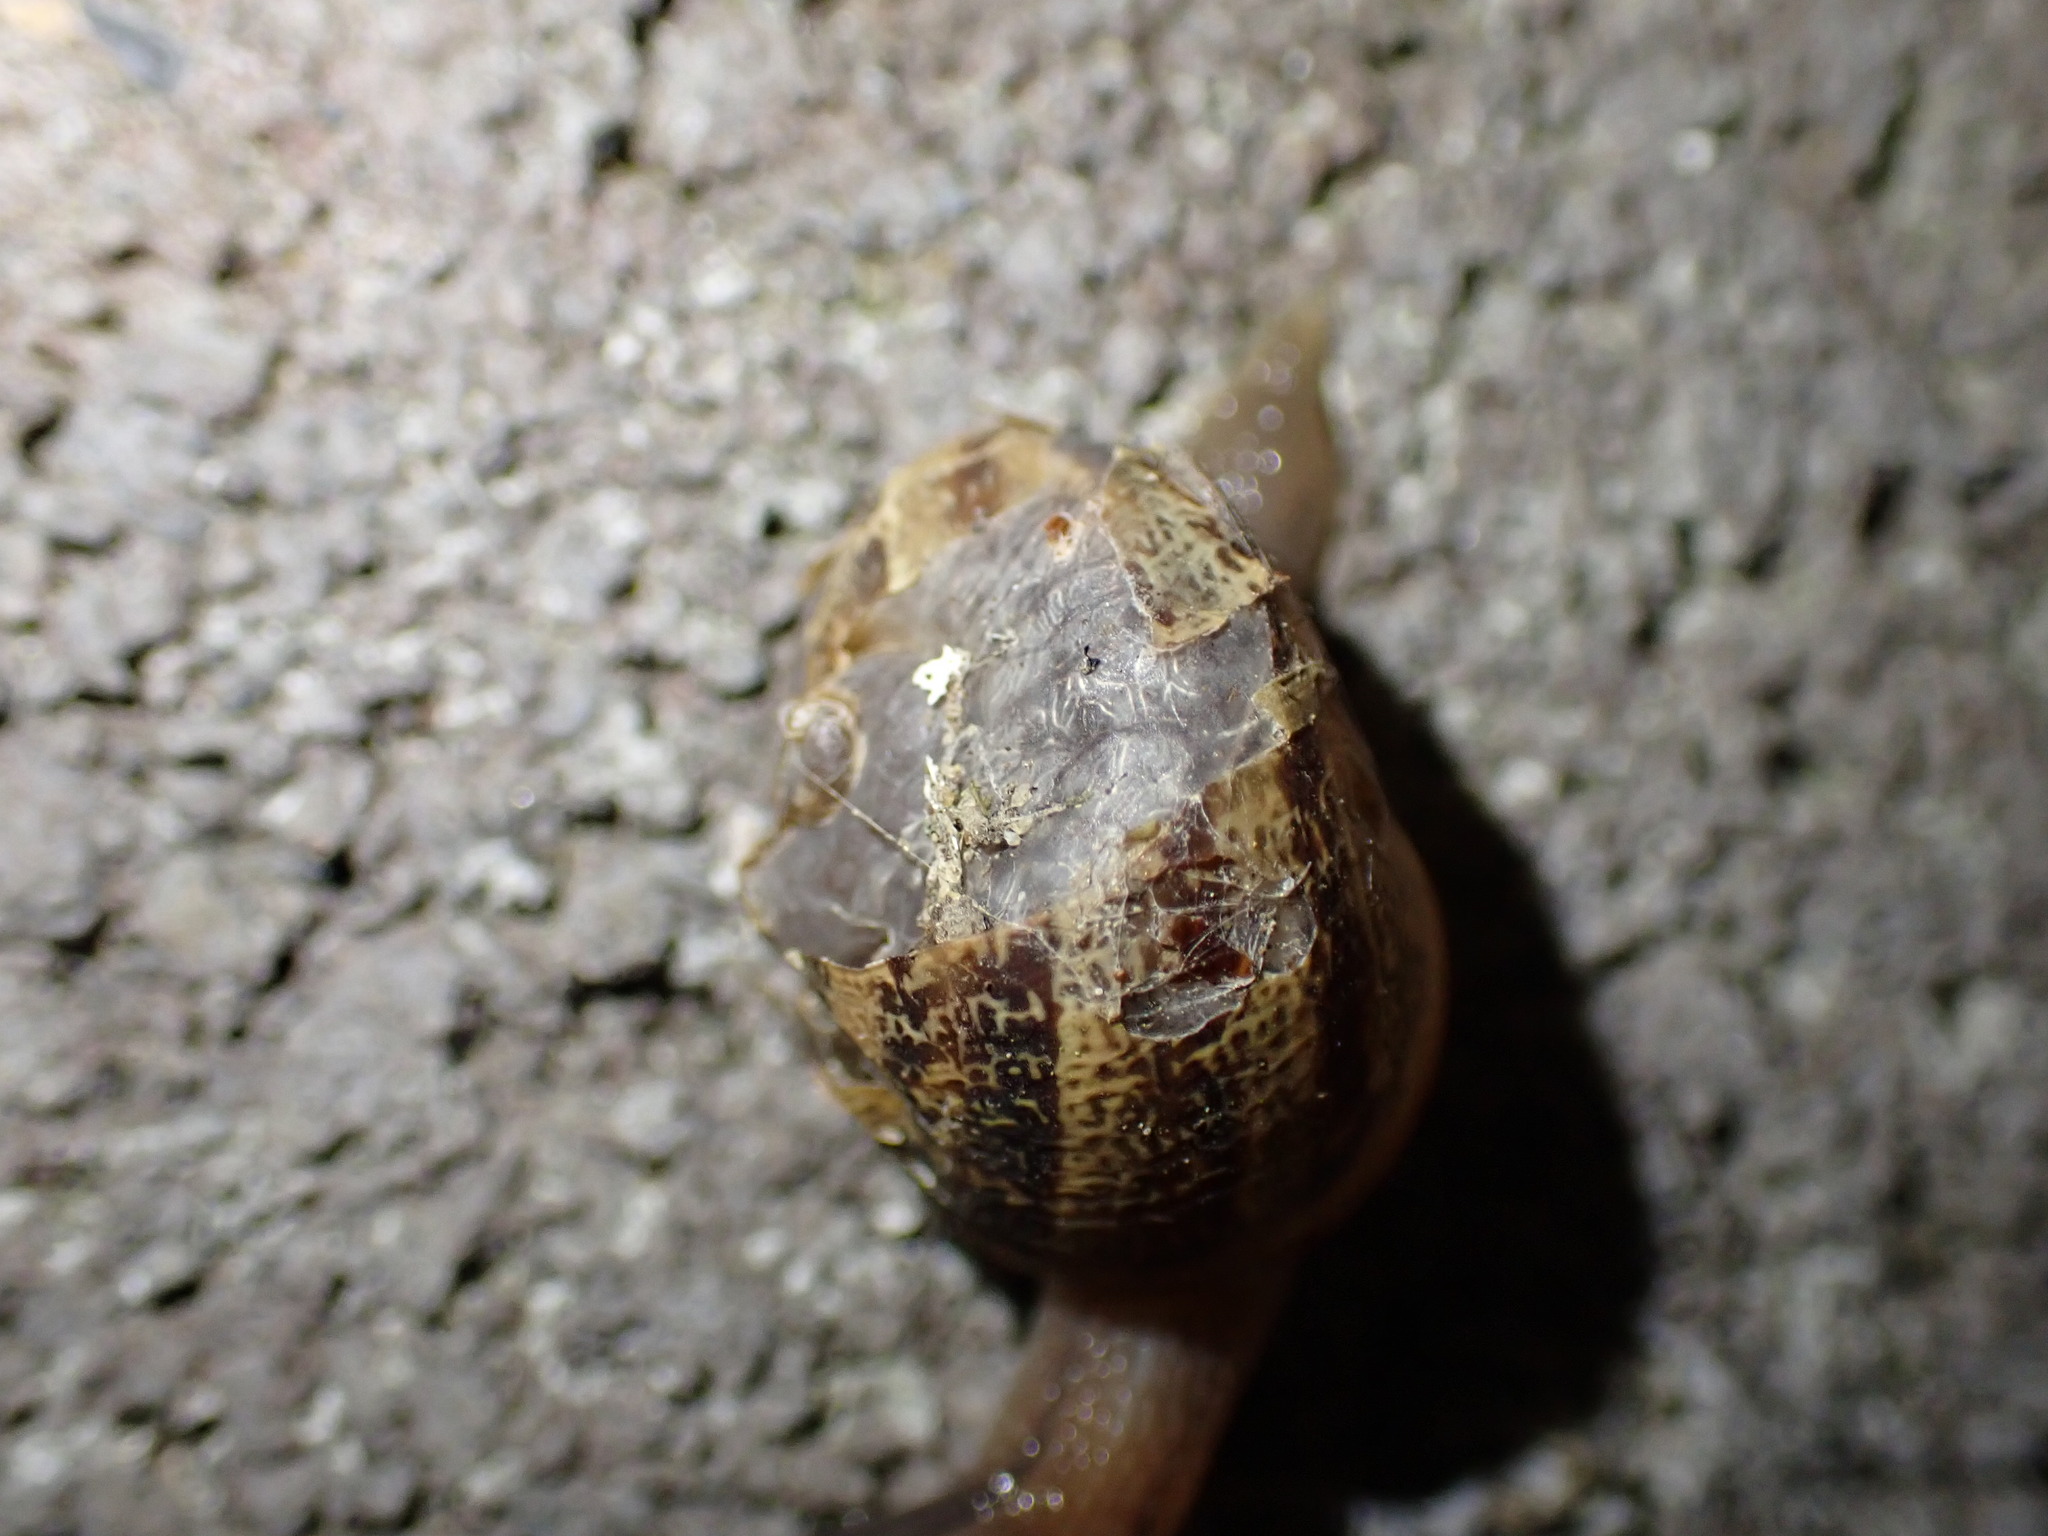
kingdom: Animalia
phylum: Mollusca
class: Gastropoda
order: Stylommatophora
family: Helicidae
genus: Cornu
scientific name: Cornu aspersum
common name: Brown garden snail
